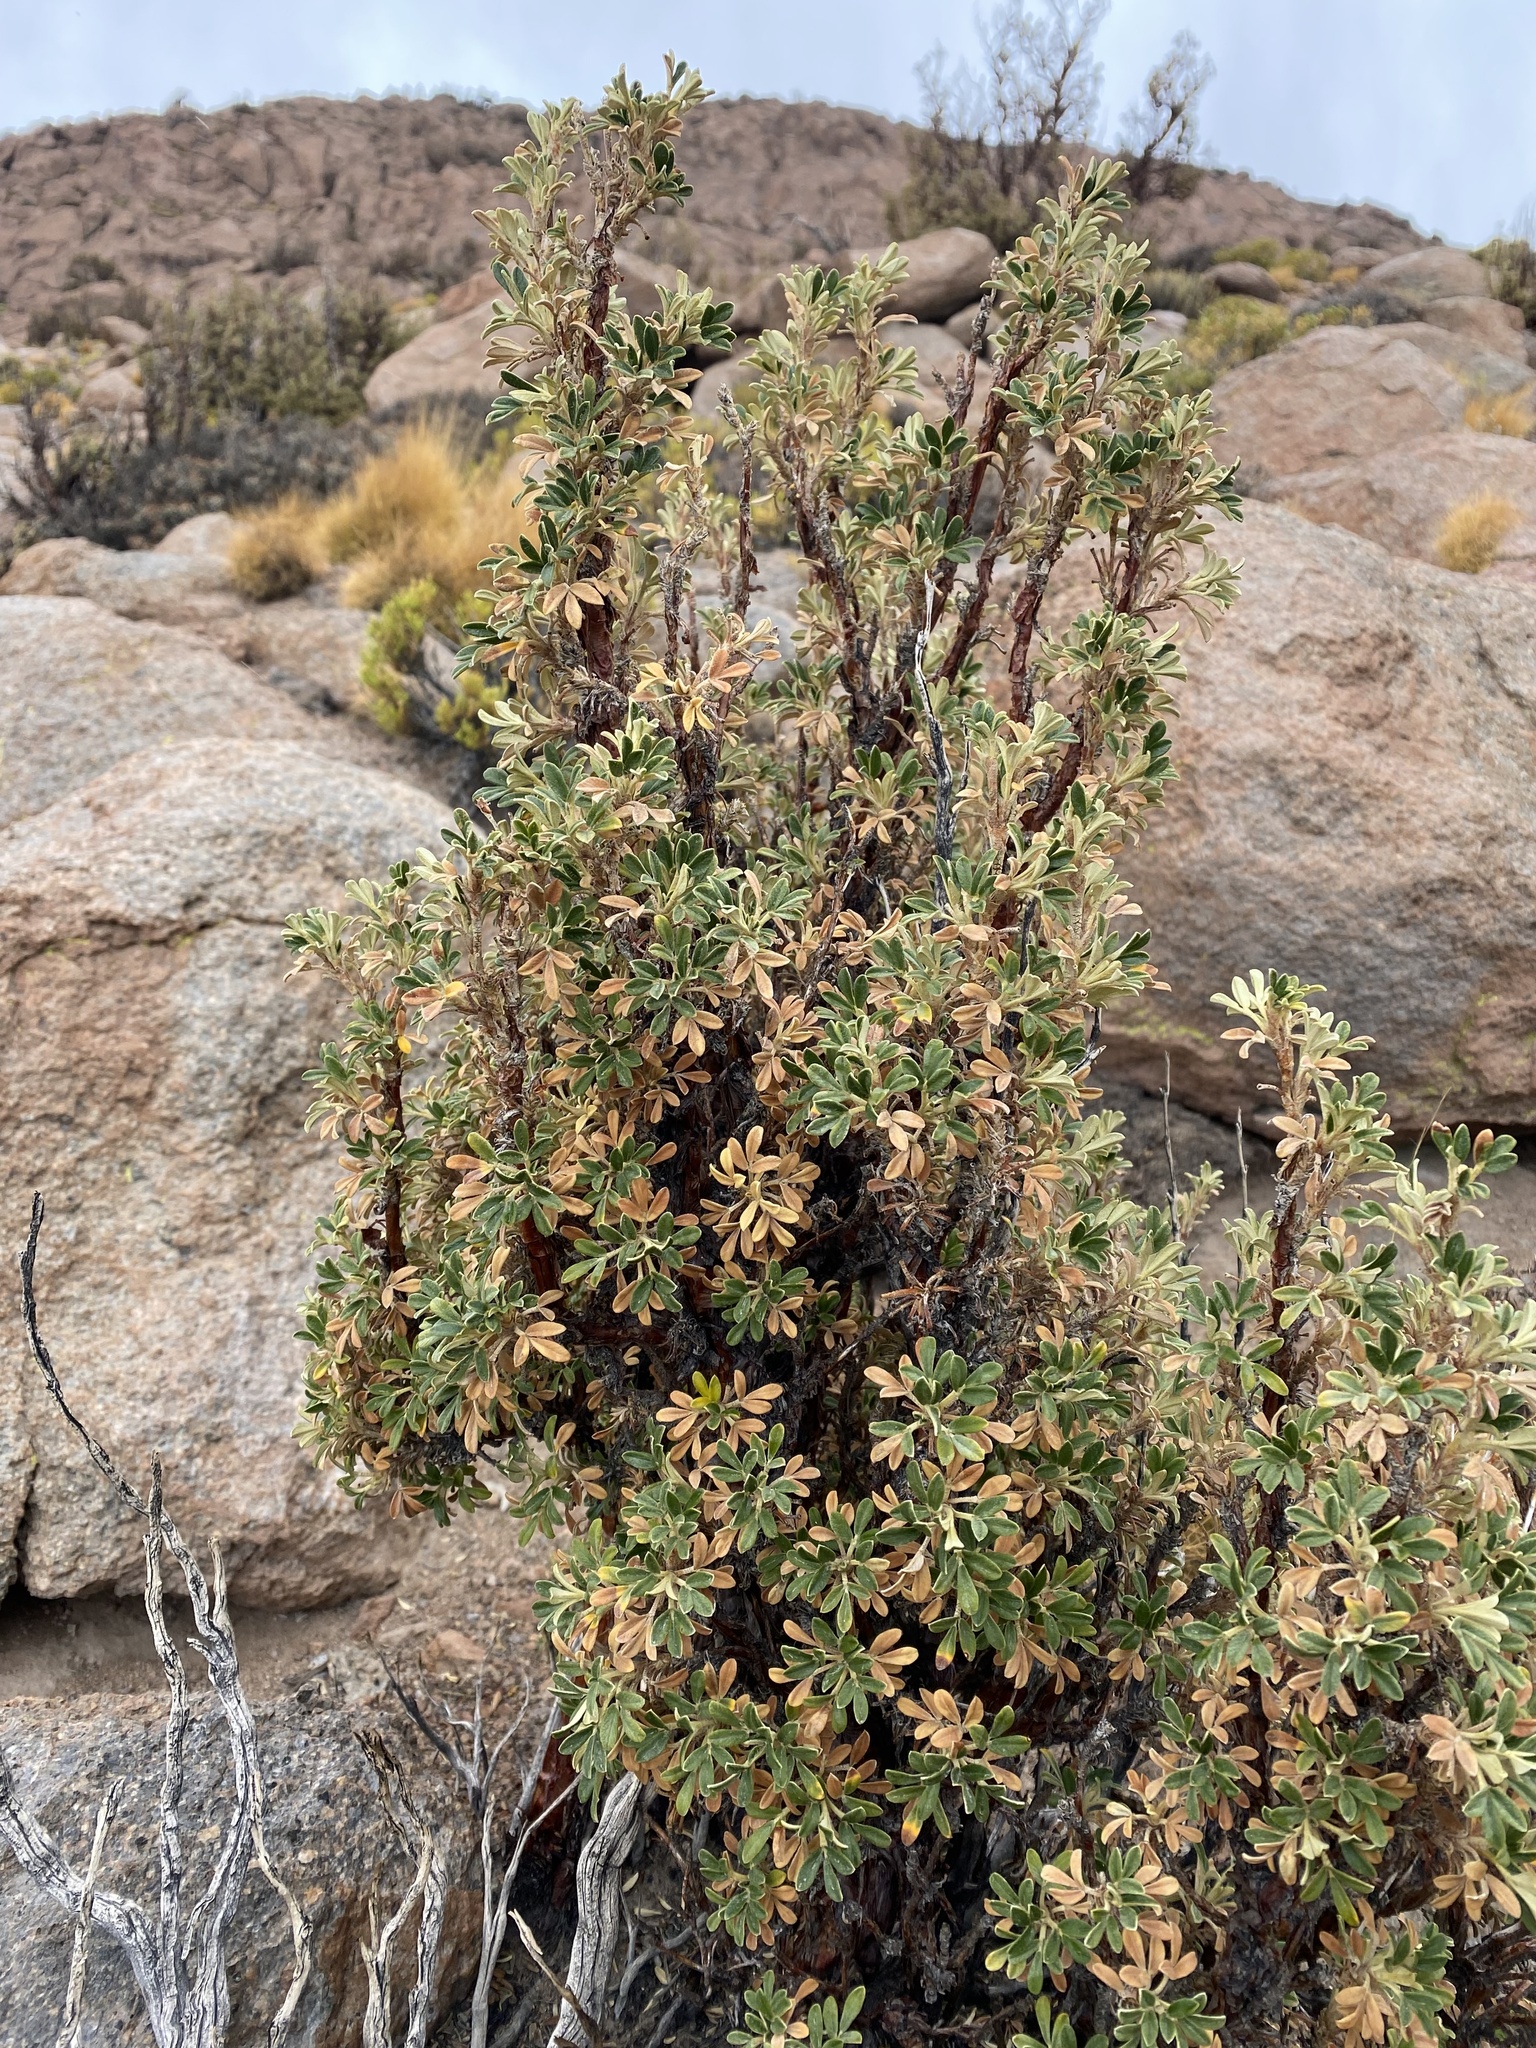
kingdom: Plantae
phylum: Tracheophyta
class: Magnoliopsida
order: Rosales
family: Rosaceae
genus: Polylepis
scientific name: Polylepis tarapacana
